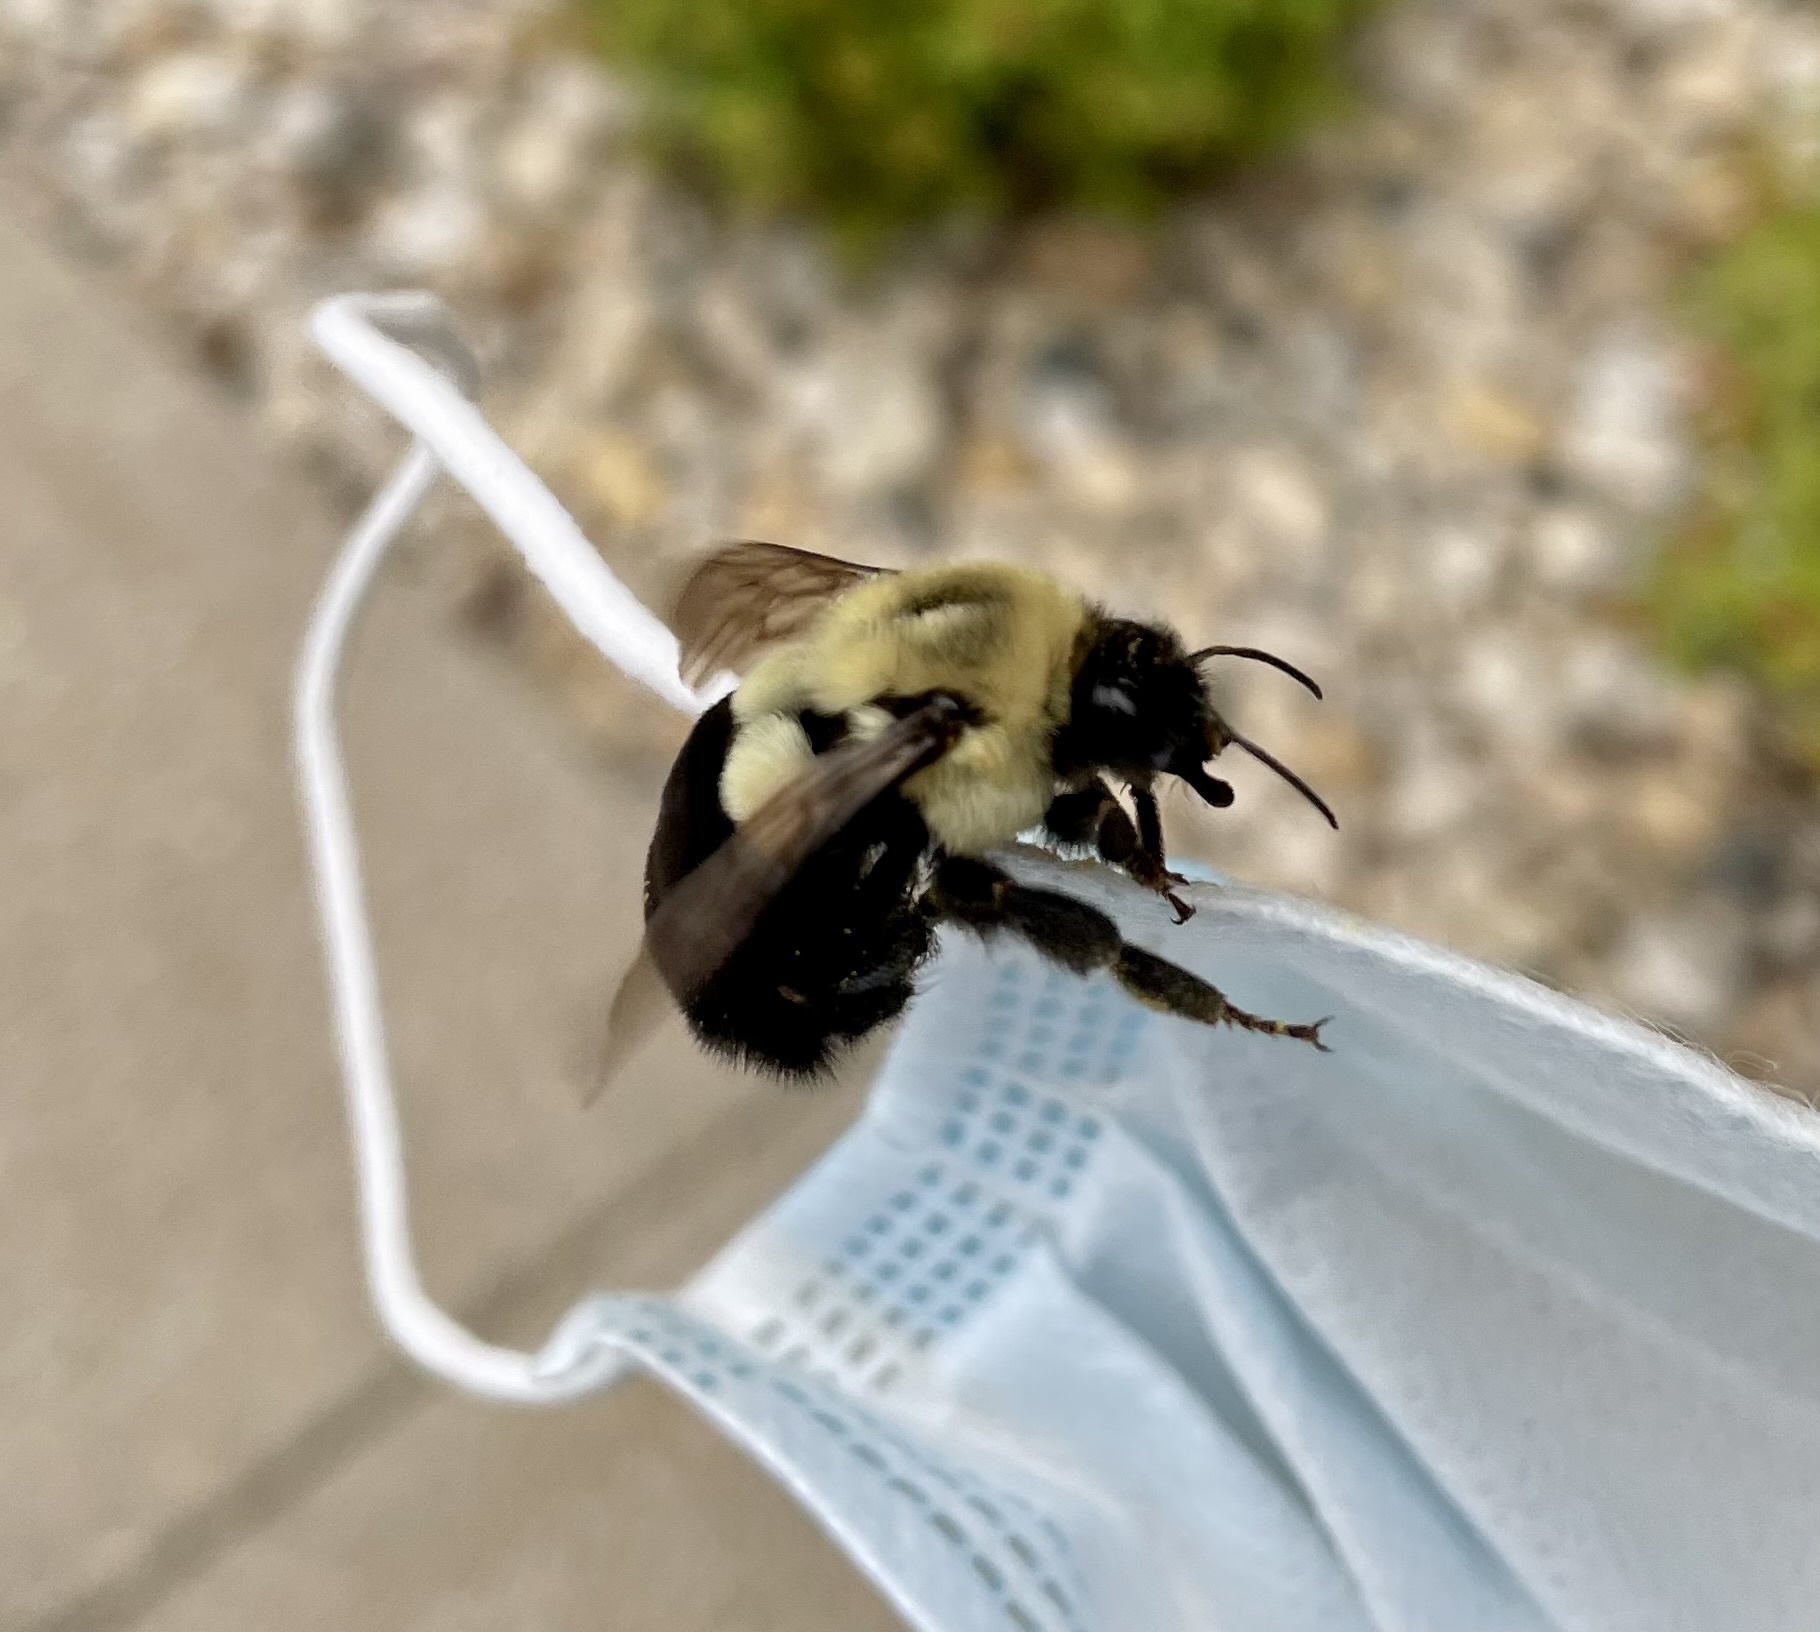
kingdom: Animalia
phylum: Arthropoda
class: Insecta
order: Hymenoptera
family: Apidae
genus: Bombus
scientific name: Bombus impatiens
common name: Common eastern bumble bee
